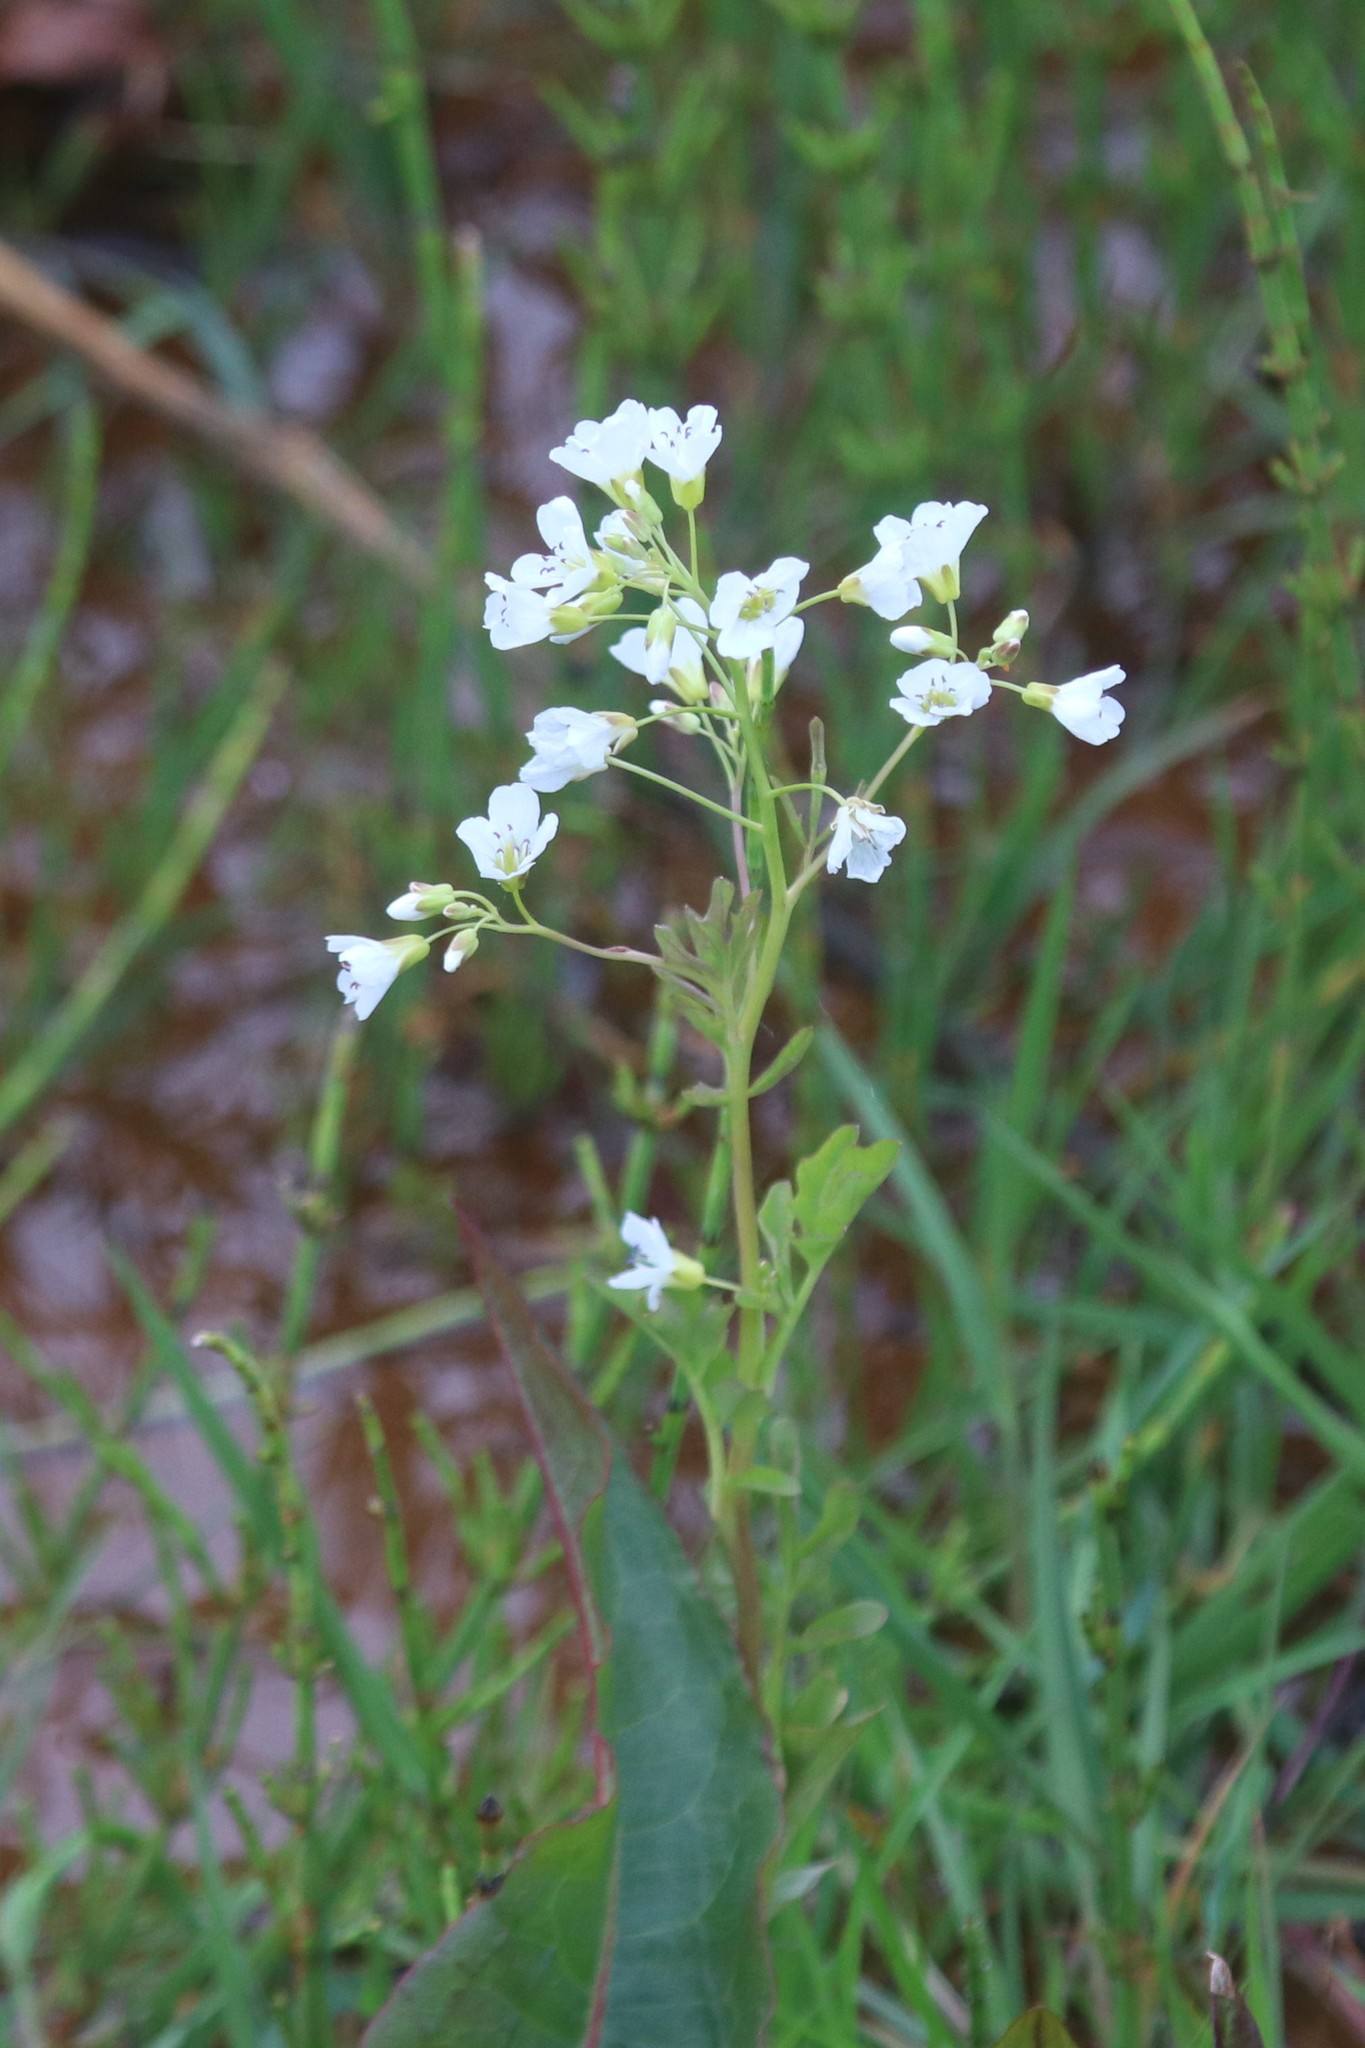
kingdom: Plantae
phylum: Tracheophyta
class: Magnoliopsida
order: Brassicales
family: Brassicaceae
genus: Cardamine
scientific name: Cardamine amara
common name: Large bitter-cress
